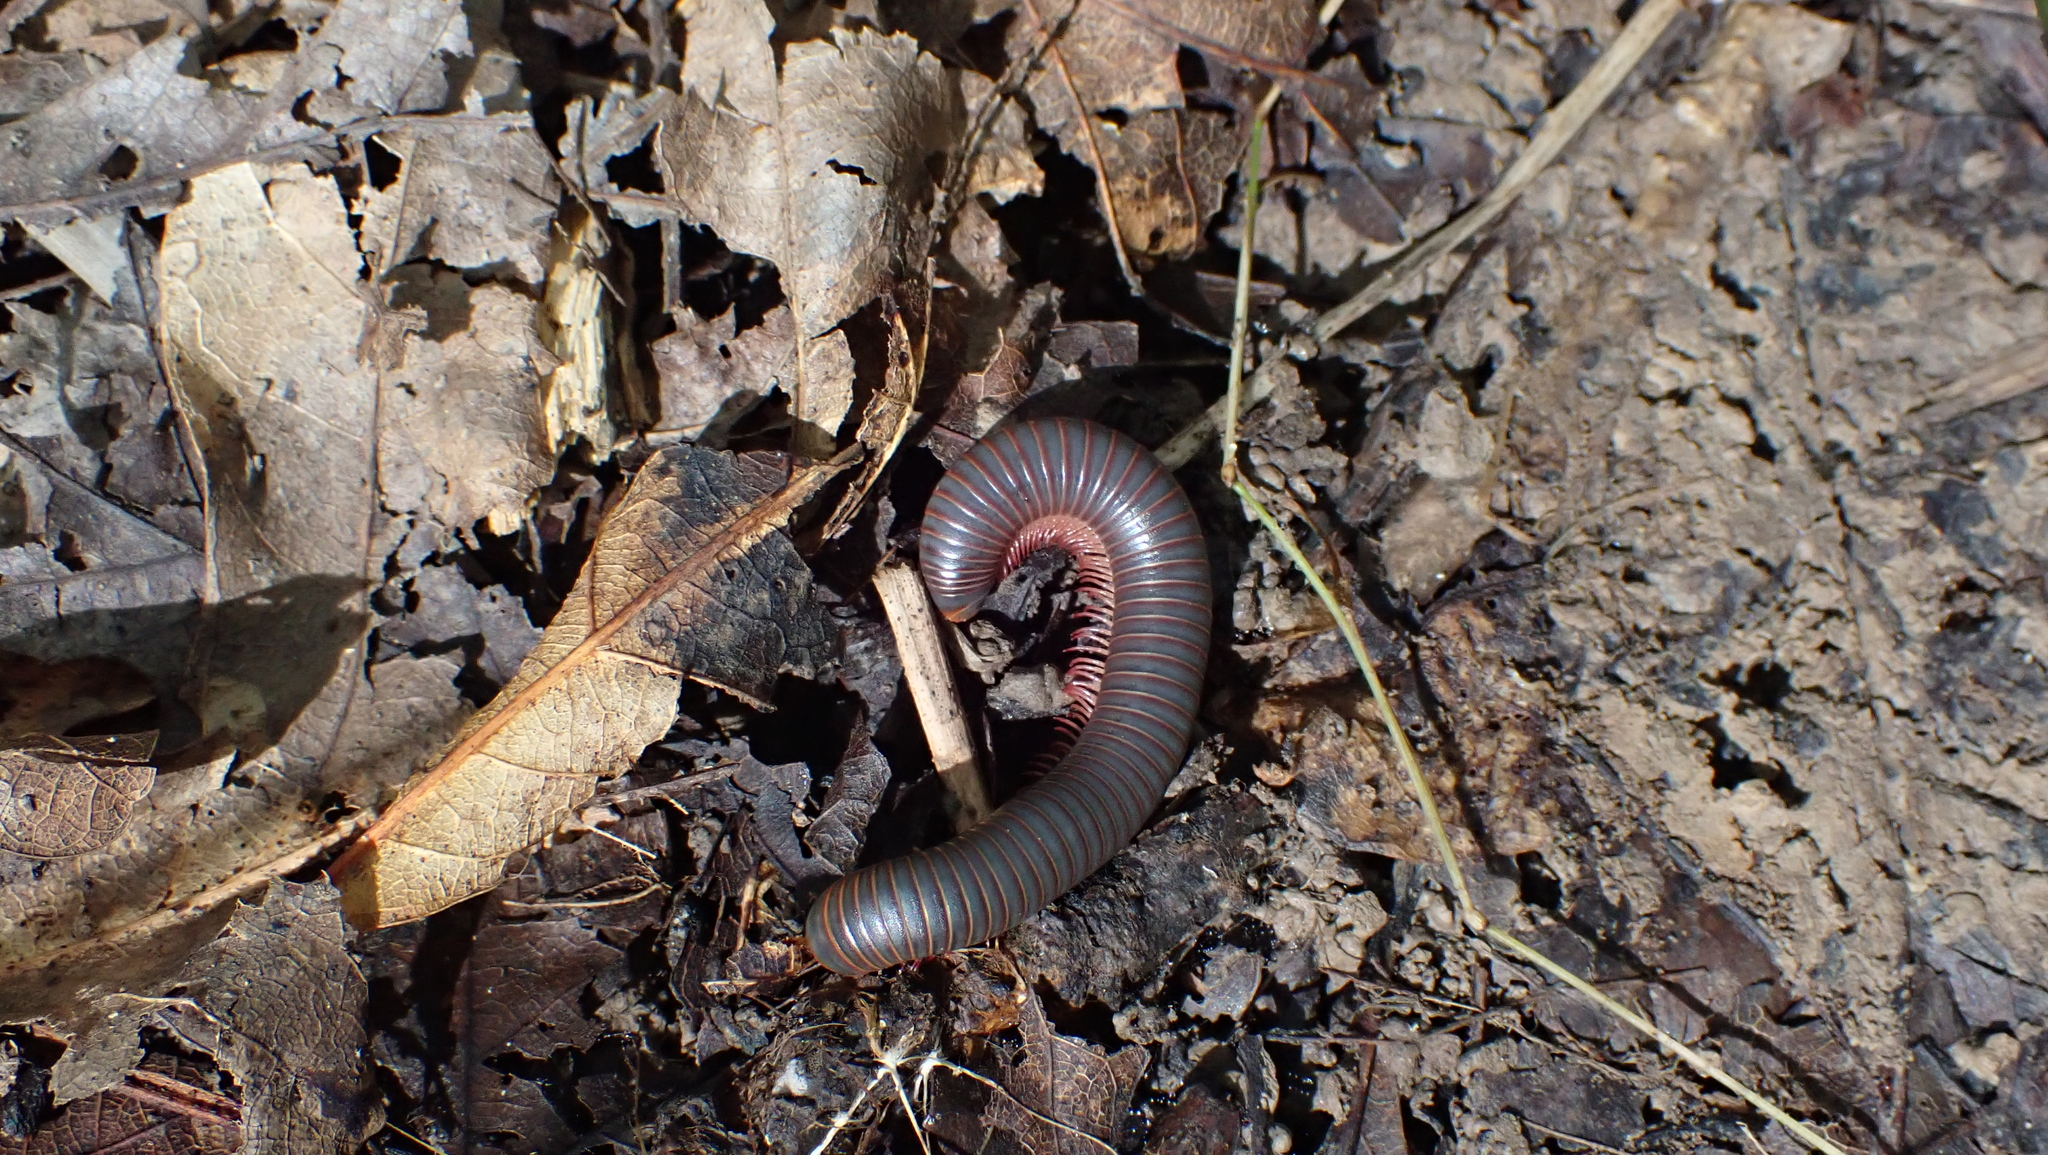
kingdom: Animalia
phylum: Arthropoda
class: Diplopoda
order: Spirobolida
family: Spirobolidae
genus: Narceus
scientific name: Narceus
